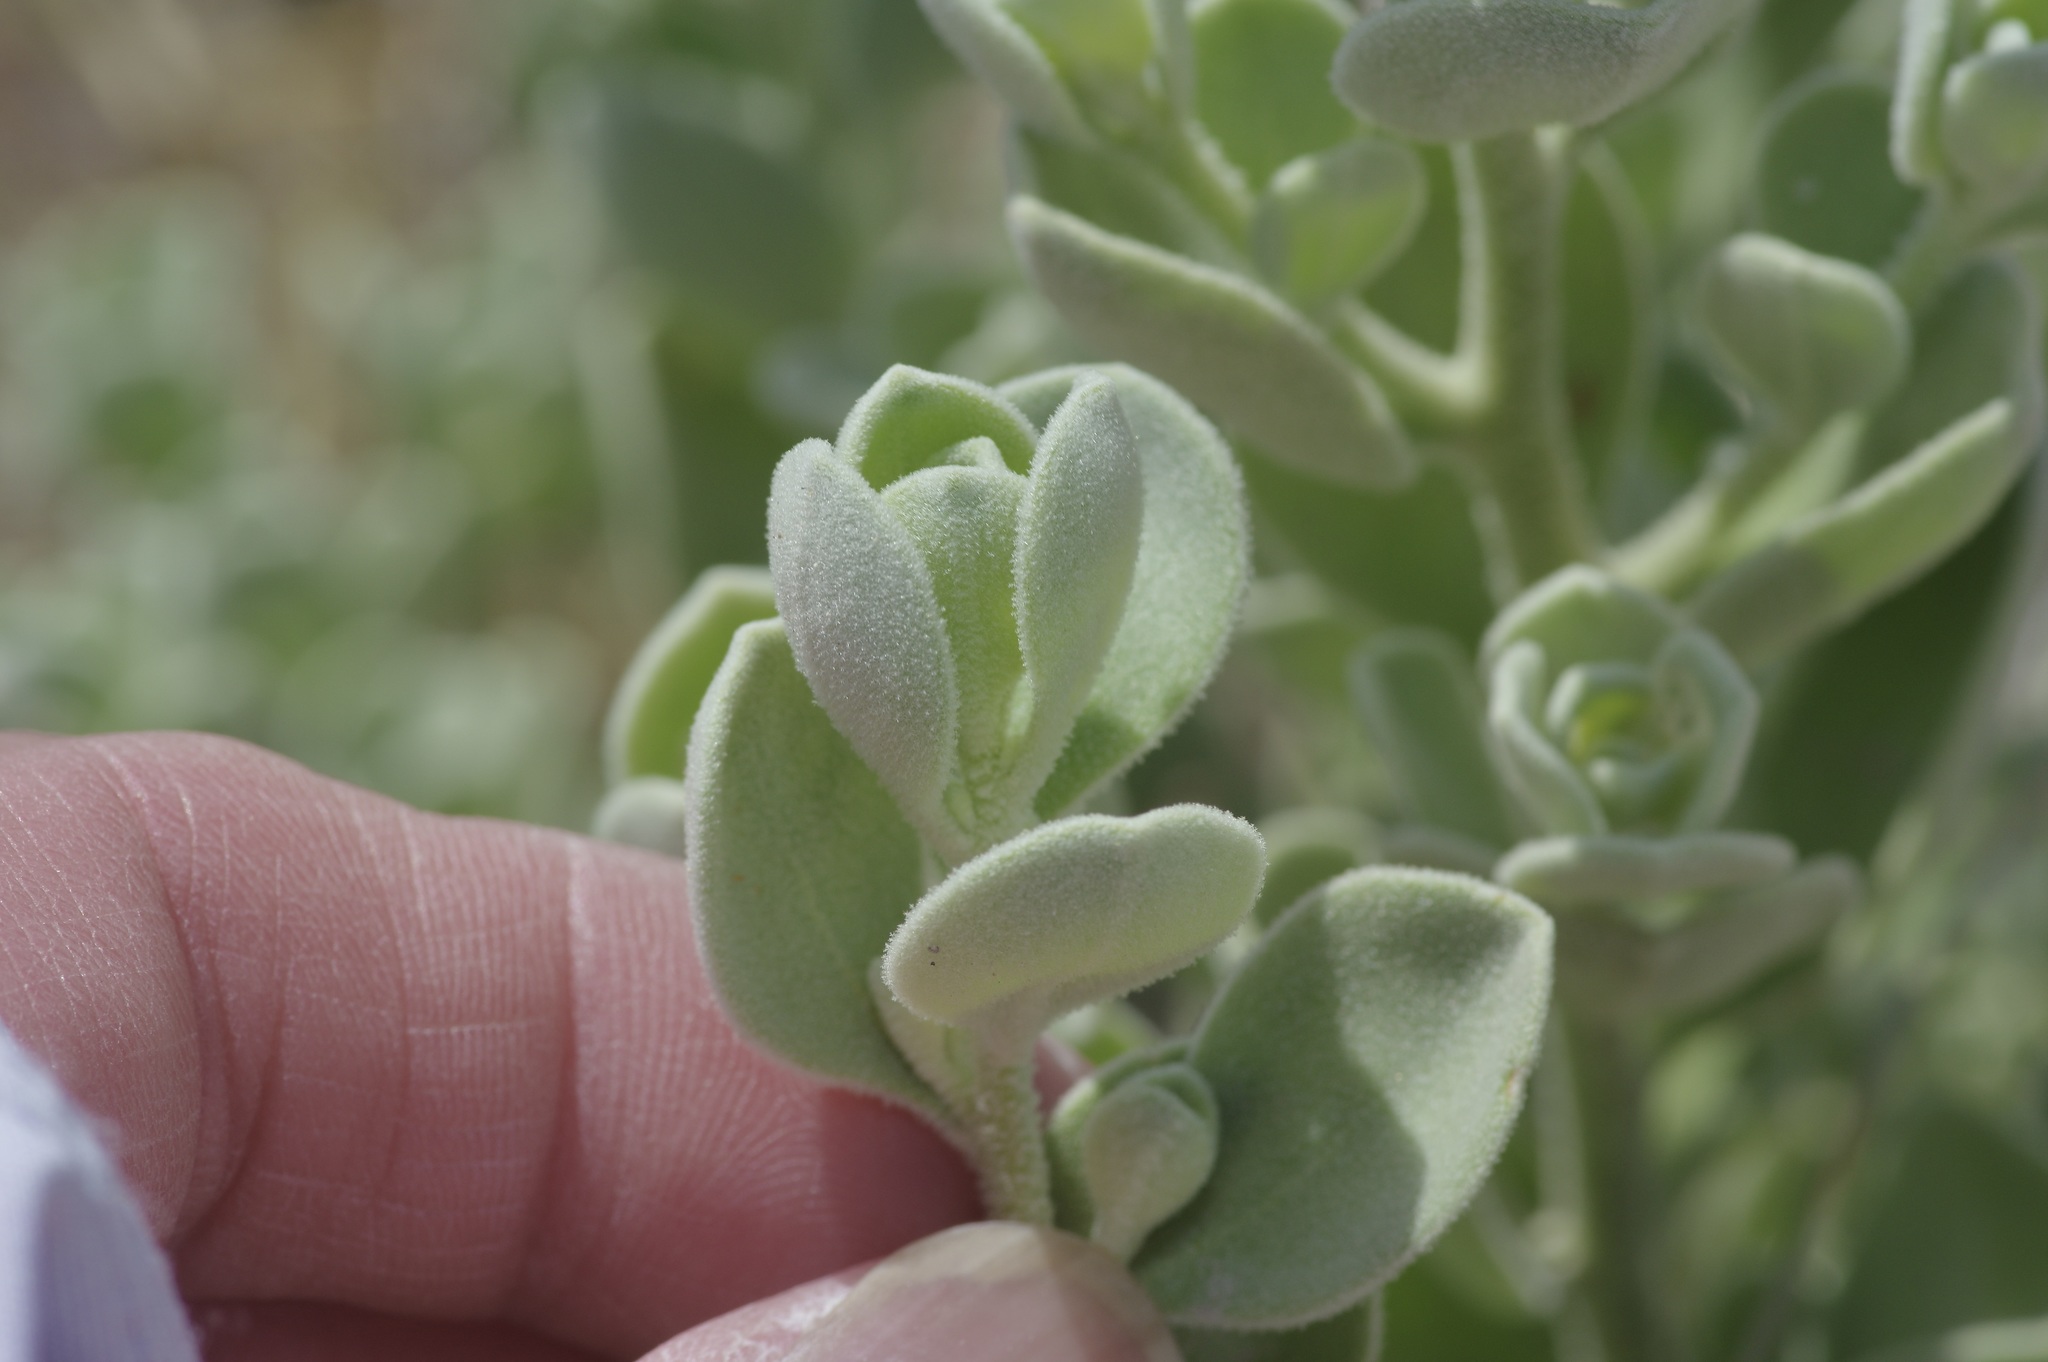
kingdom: Plantae
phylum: Tracheophyta
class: Magnoliopsida
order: Lamiales
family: Scrophulariaceae
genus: Leucophyllum
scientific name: Leucophyllum frutescens
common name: Texas silverleaf
